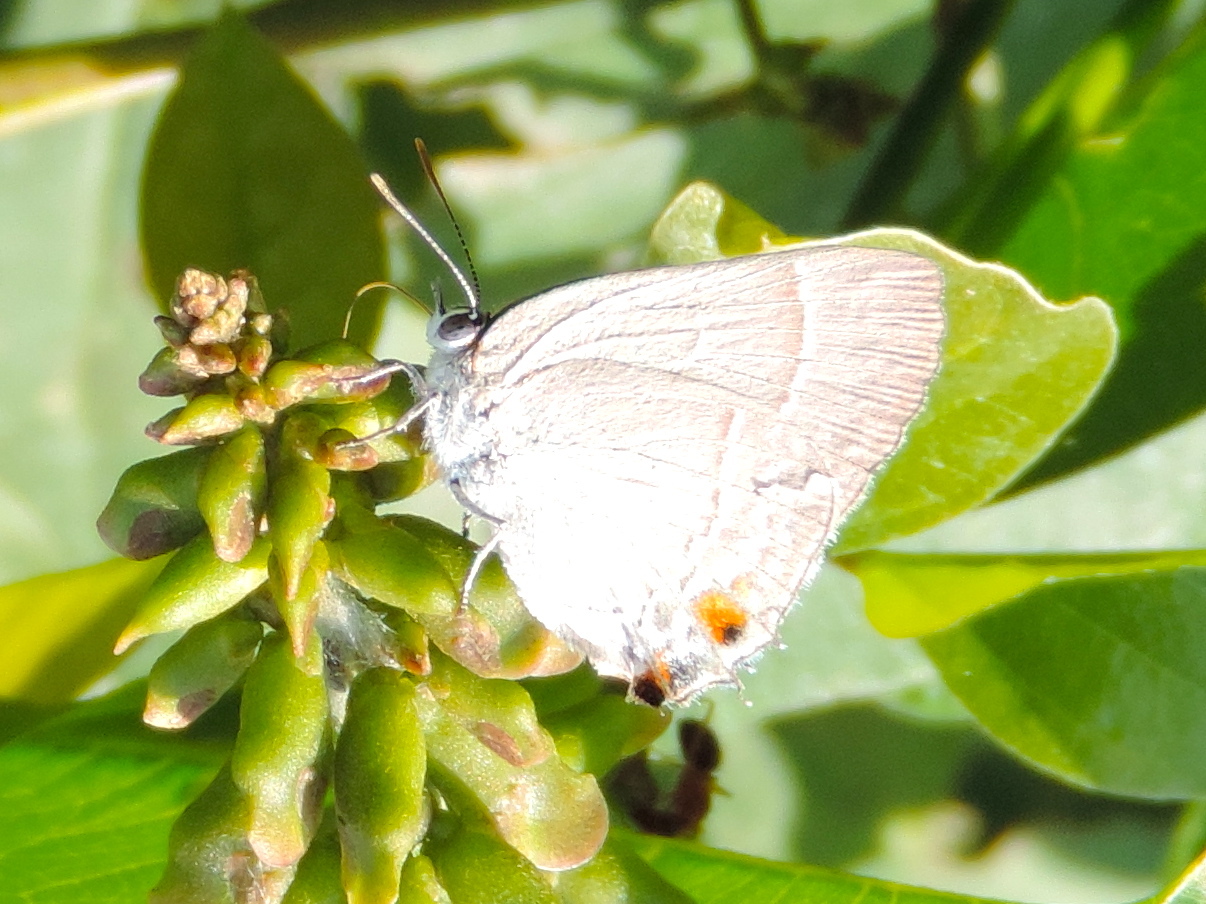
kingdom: Animalia
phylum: Arthropoda
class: Insecta
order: Lepidoptera
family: Lycaenidae
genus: Thecla
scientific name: Thecla marius
